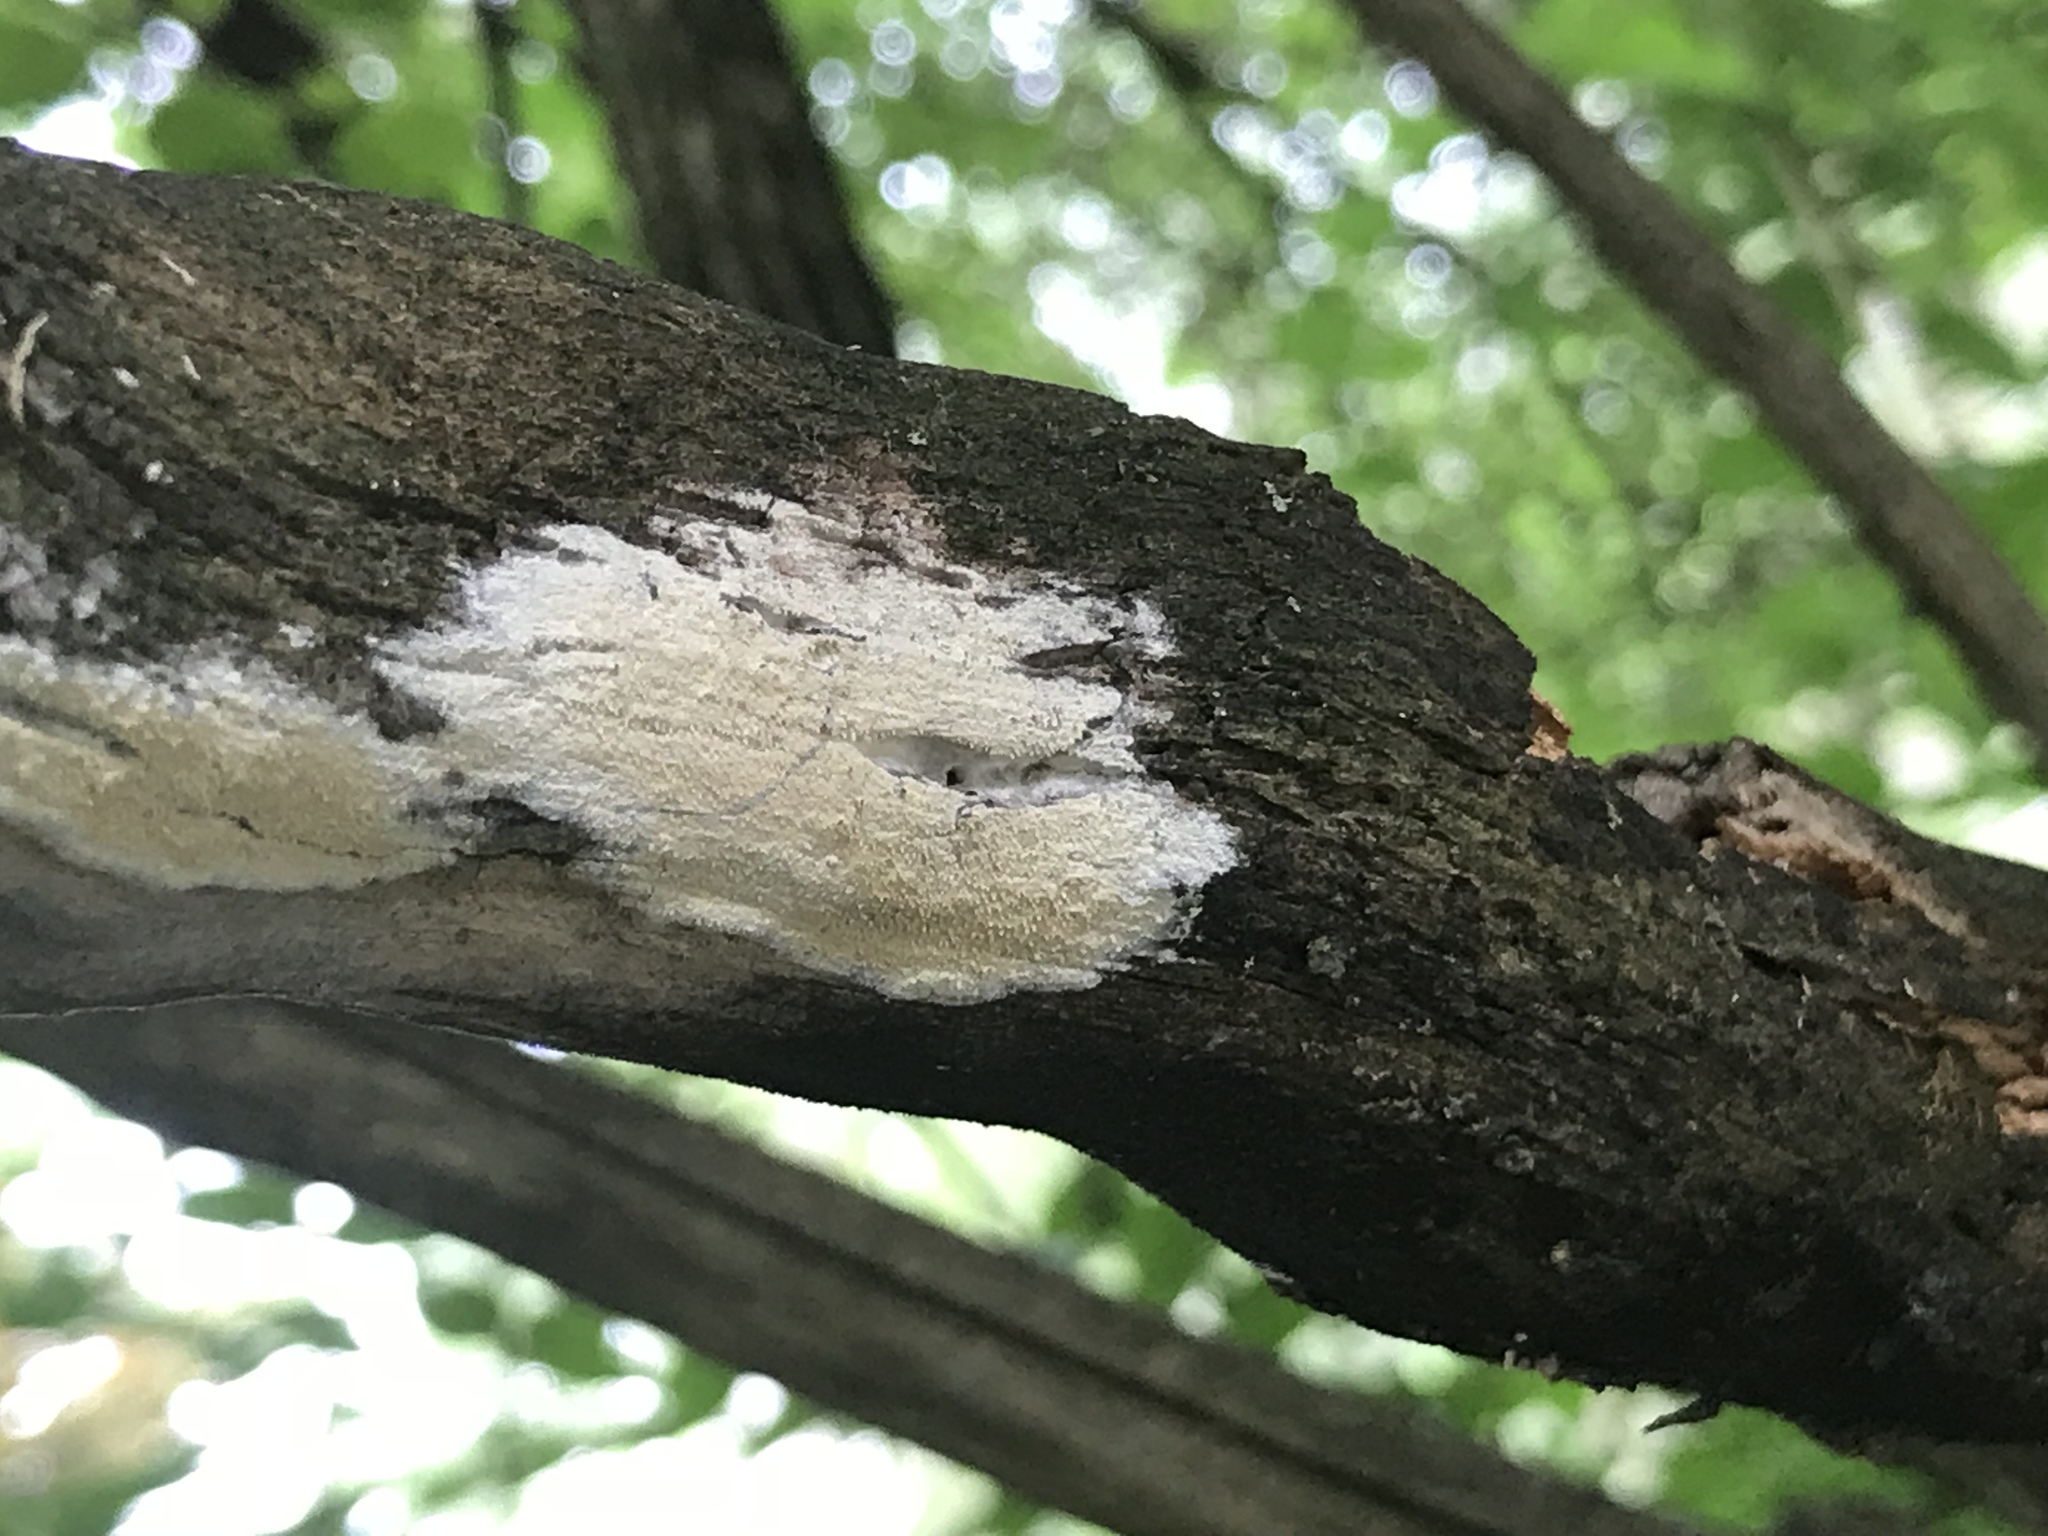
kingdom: Fungi
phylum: Basidiomycota
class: Agaricomycetes
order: Polyporales
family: Irpicaceae
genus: Irpex
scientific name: Irpex lacteus
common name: Milk-white toothed polypore
